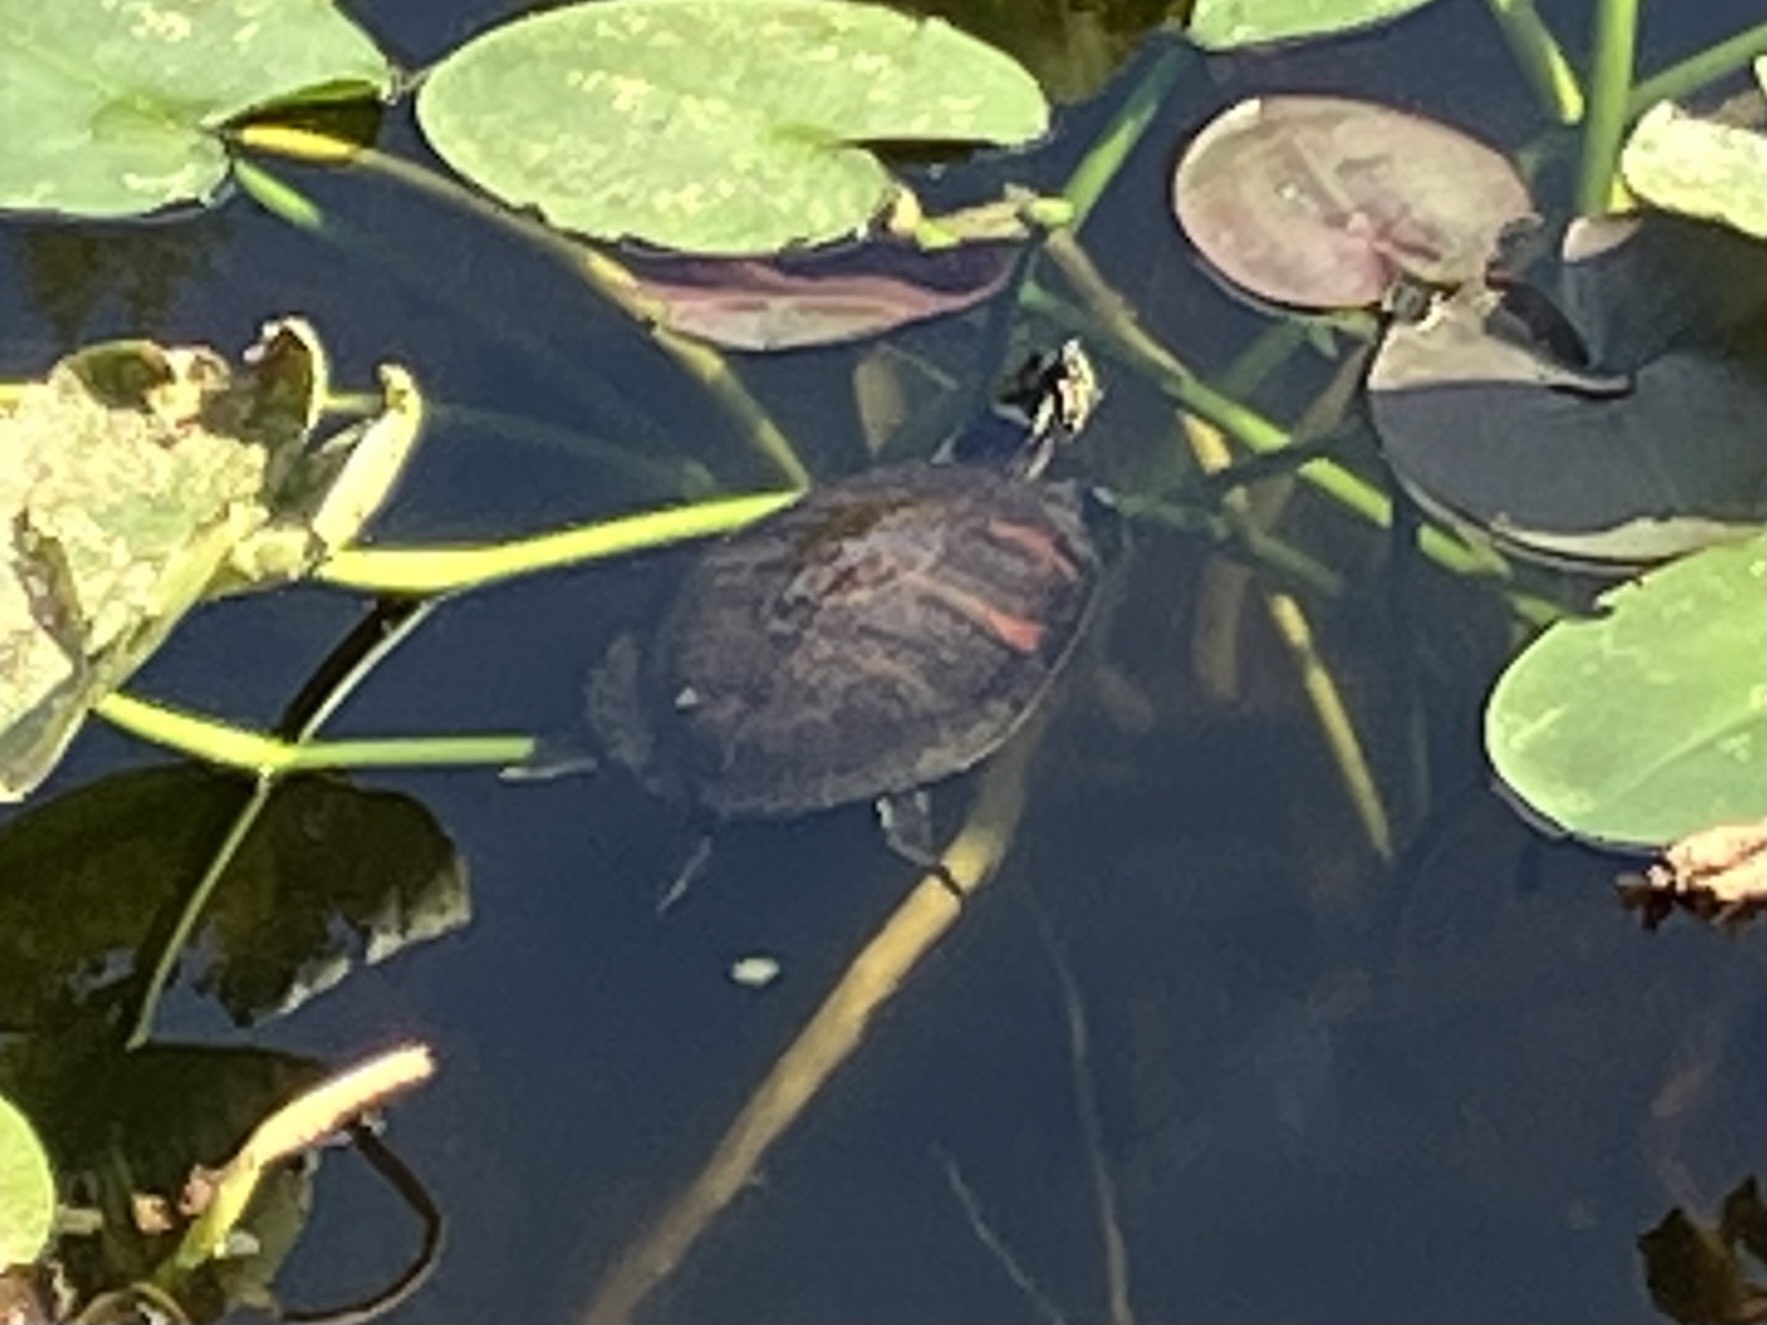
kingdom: Animalia
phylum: Chordata
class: Testudines
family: Emydidae
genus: Pseudemys
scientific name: Pseudemys nelsoni
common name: Florida red-bellied turtle
